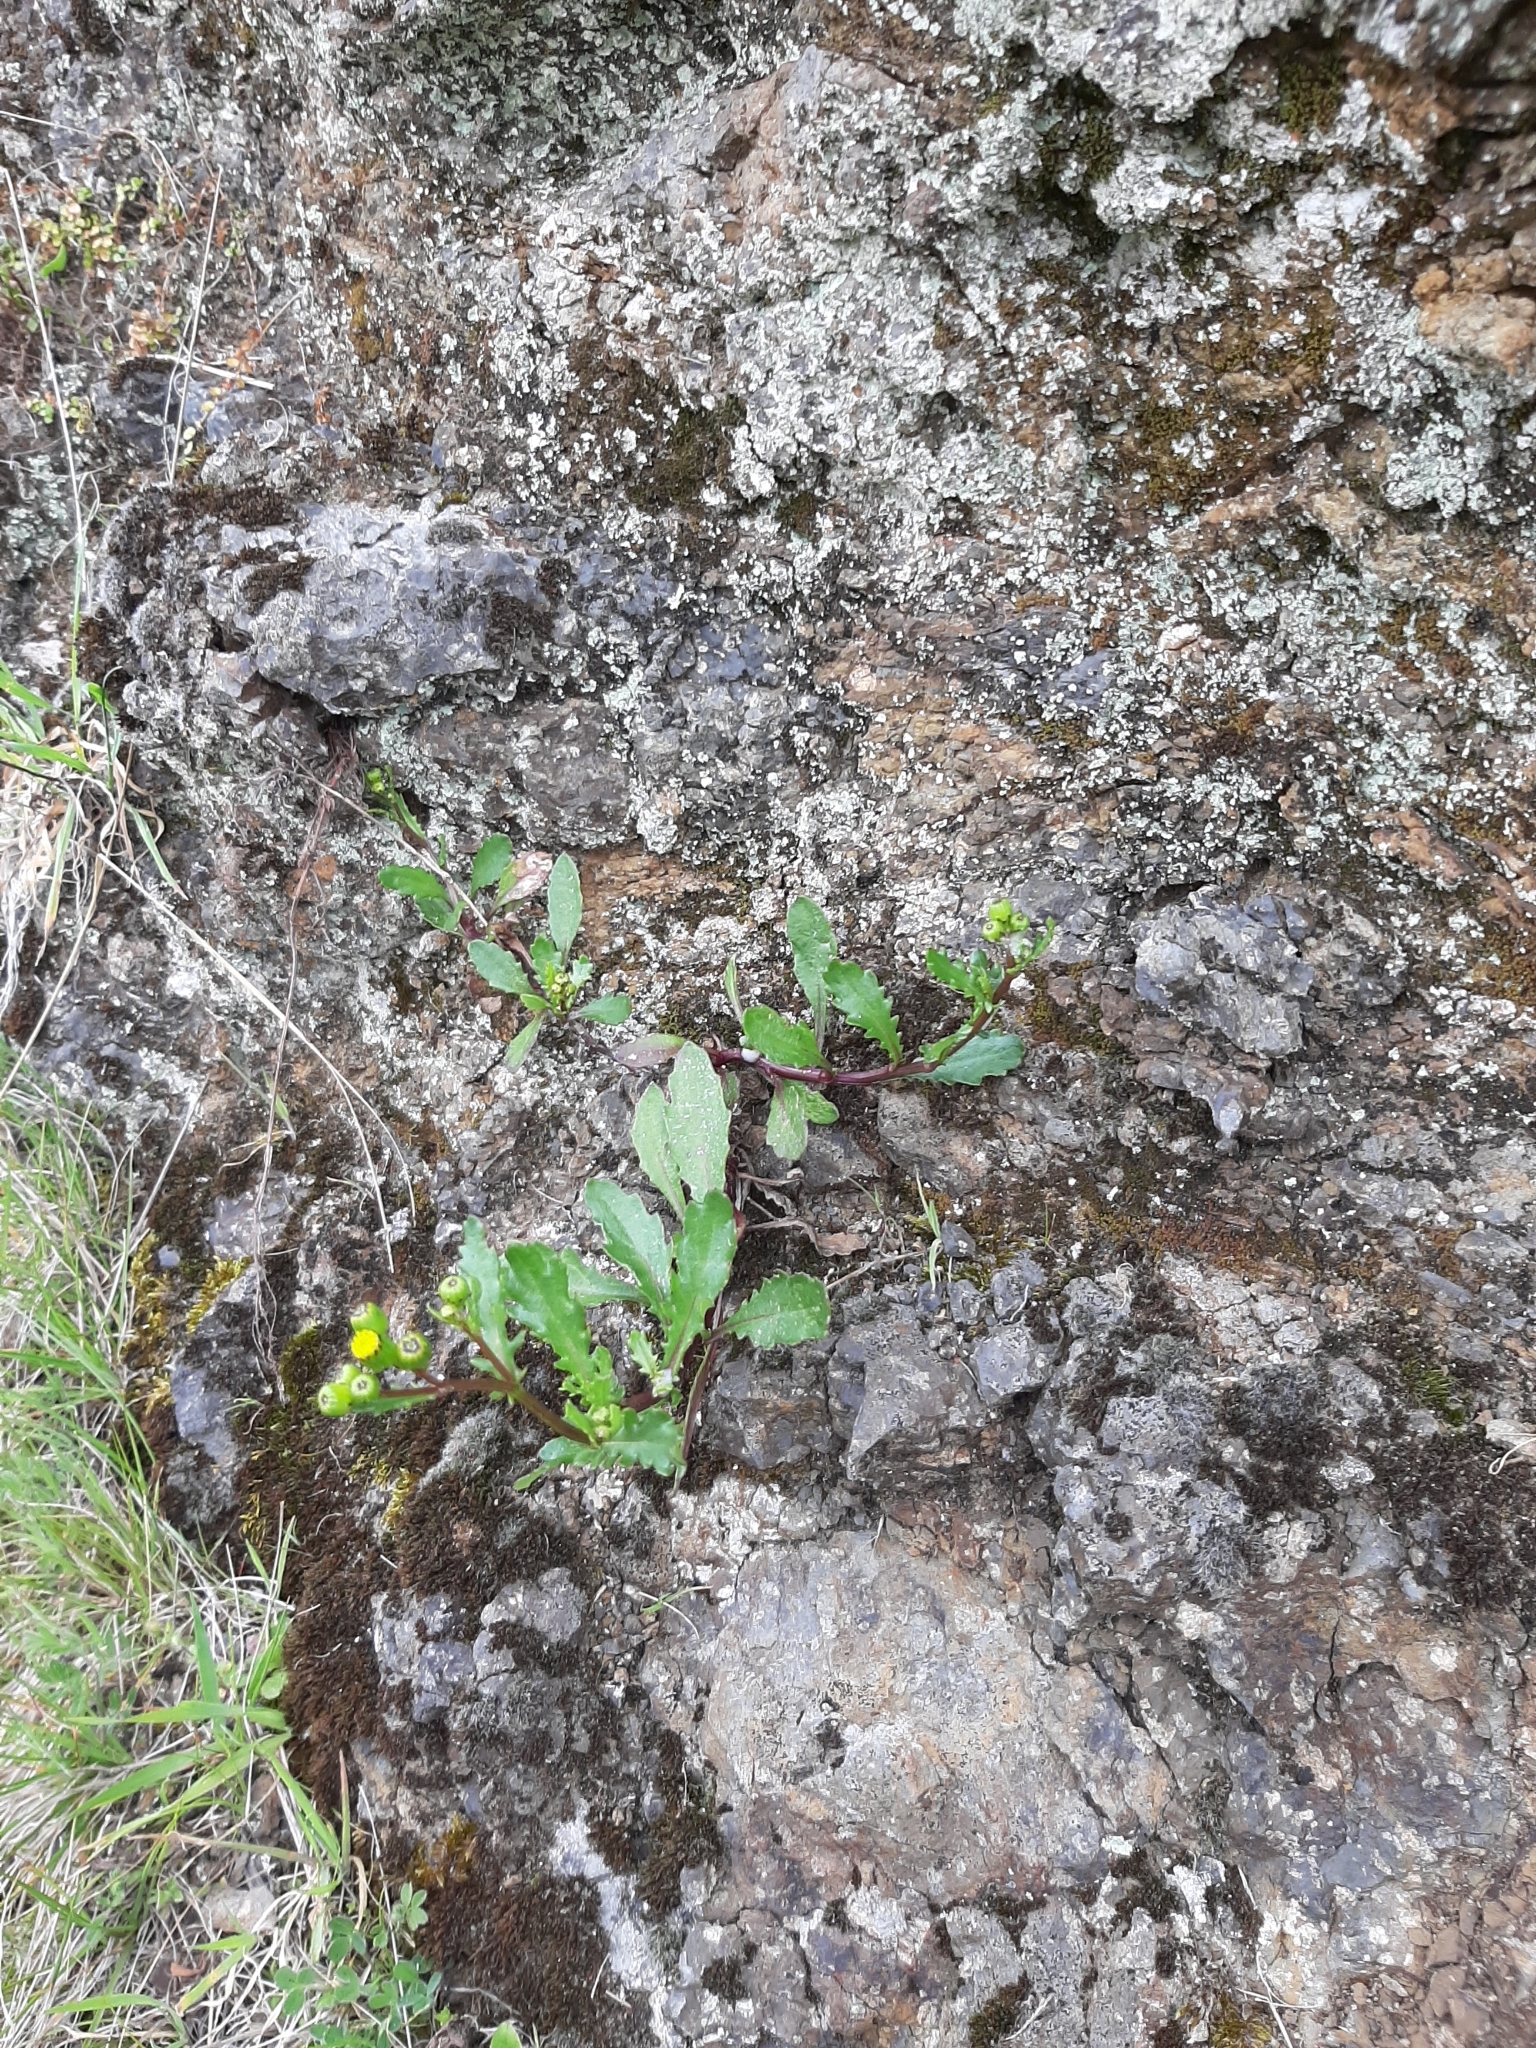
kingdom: Plantae
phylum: Tracheophyta
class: Magnoliopsida
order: Asterales
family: Asteraceae
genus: Senecio
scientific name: Senecio lautus
